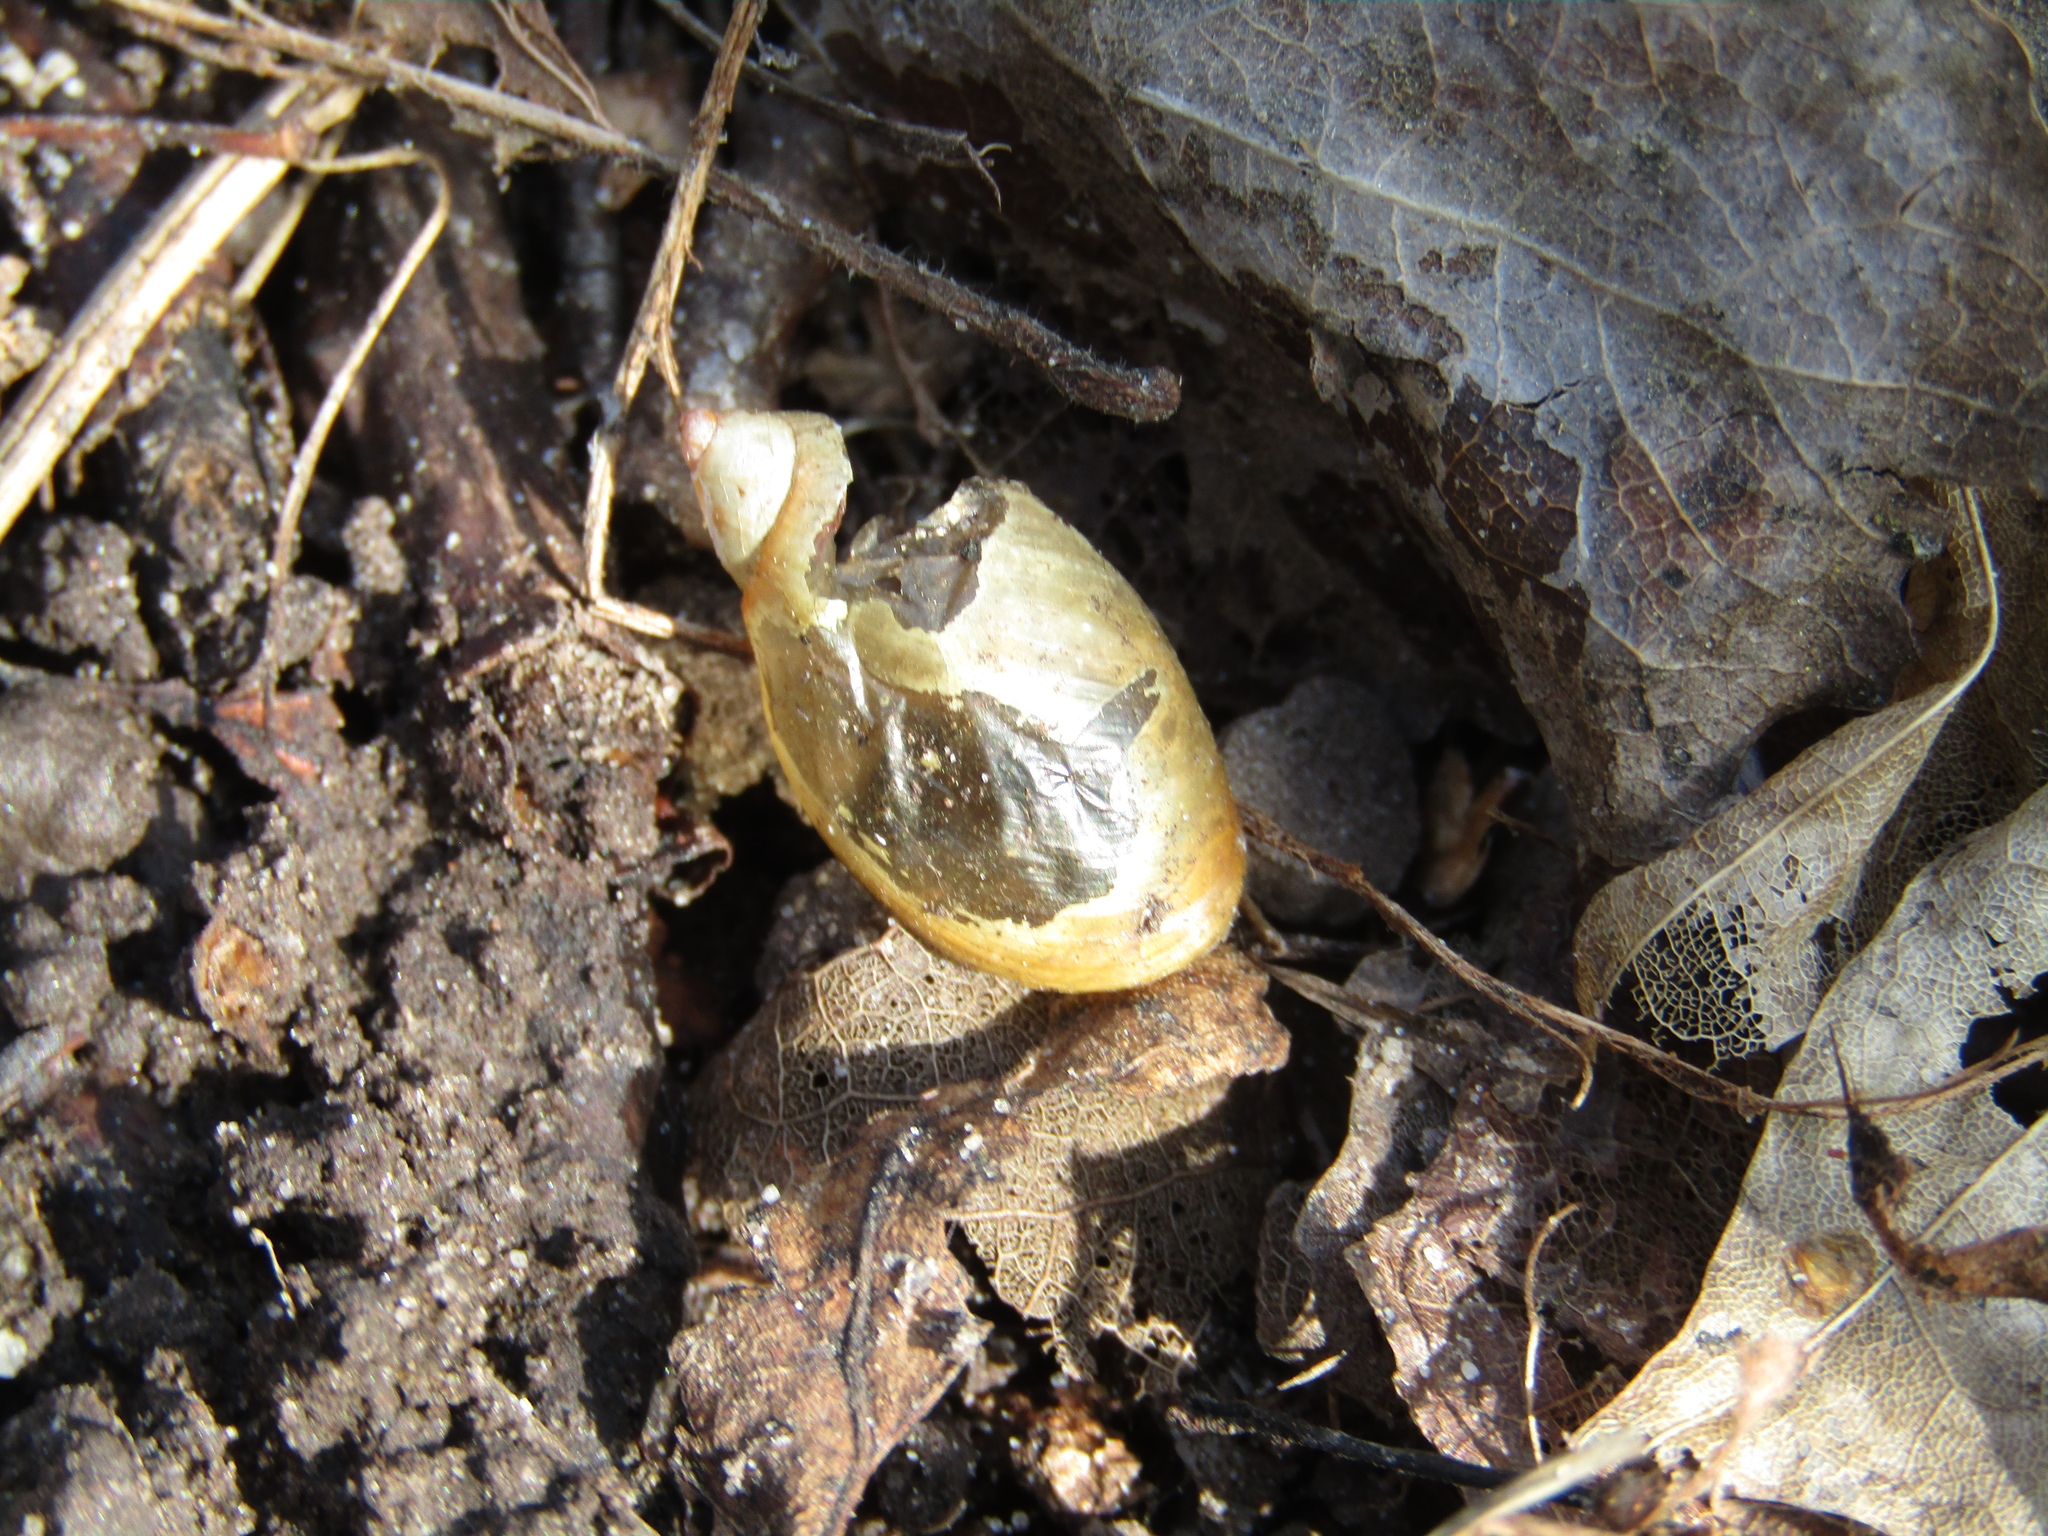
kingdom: Animalia
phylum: Mollusca
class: Gastropoda
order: Stylommatophora
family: Succineidae
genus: Succinea
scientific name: Succinea putris
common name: European ambersnail
